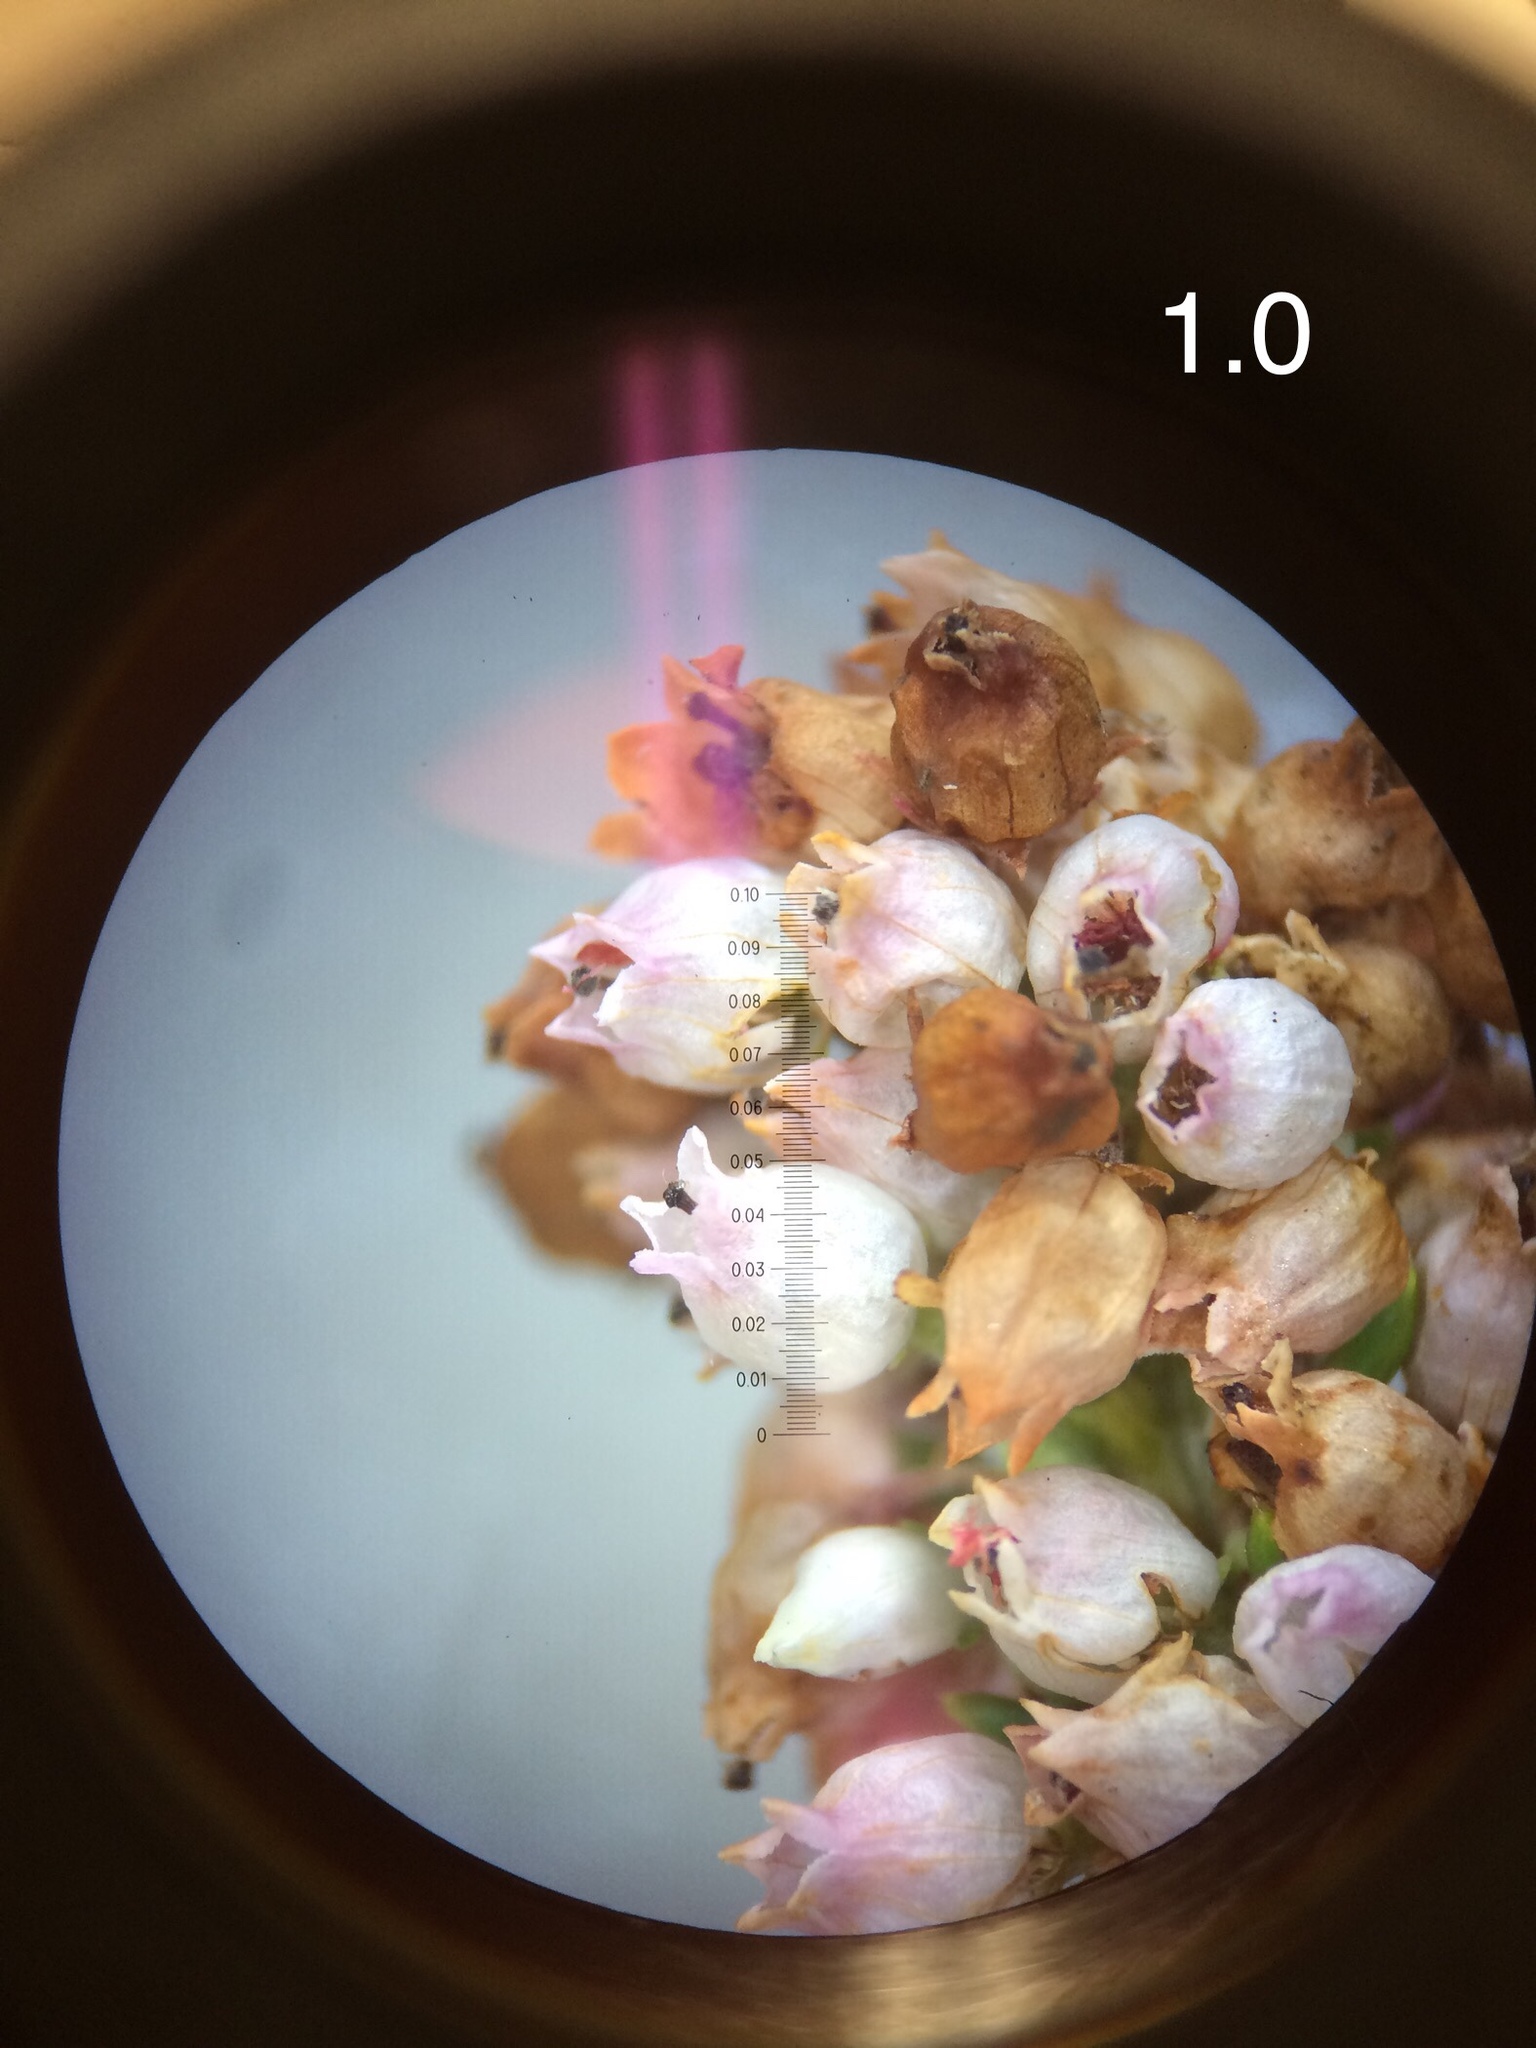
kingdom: Plantae
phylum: Tracheophyta
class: Magnoliopsida
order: Ericales
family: Ericaceae
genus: Erica
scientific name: Erica verecunda
